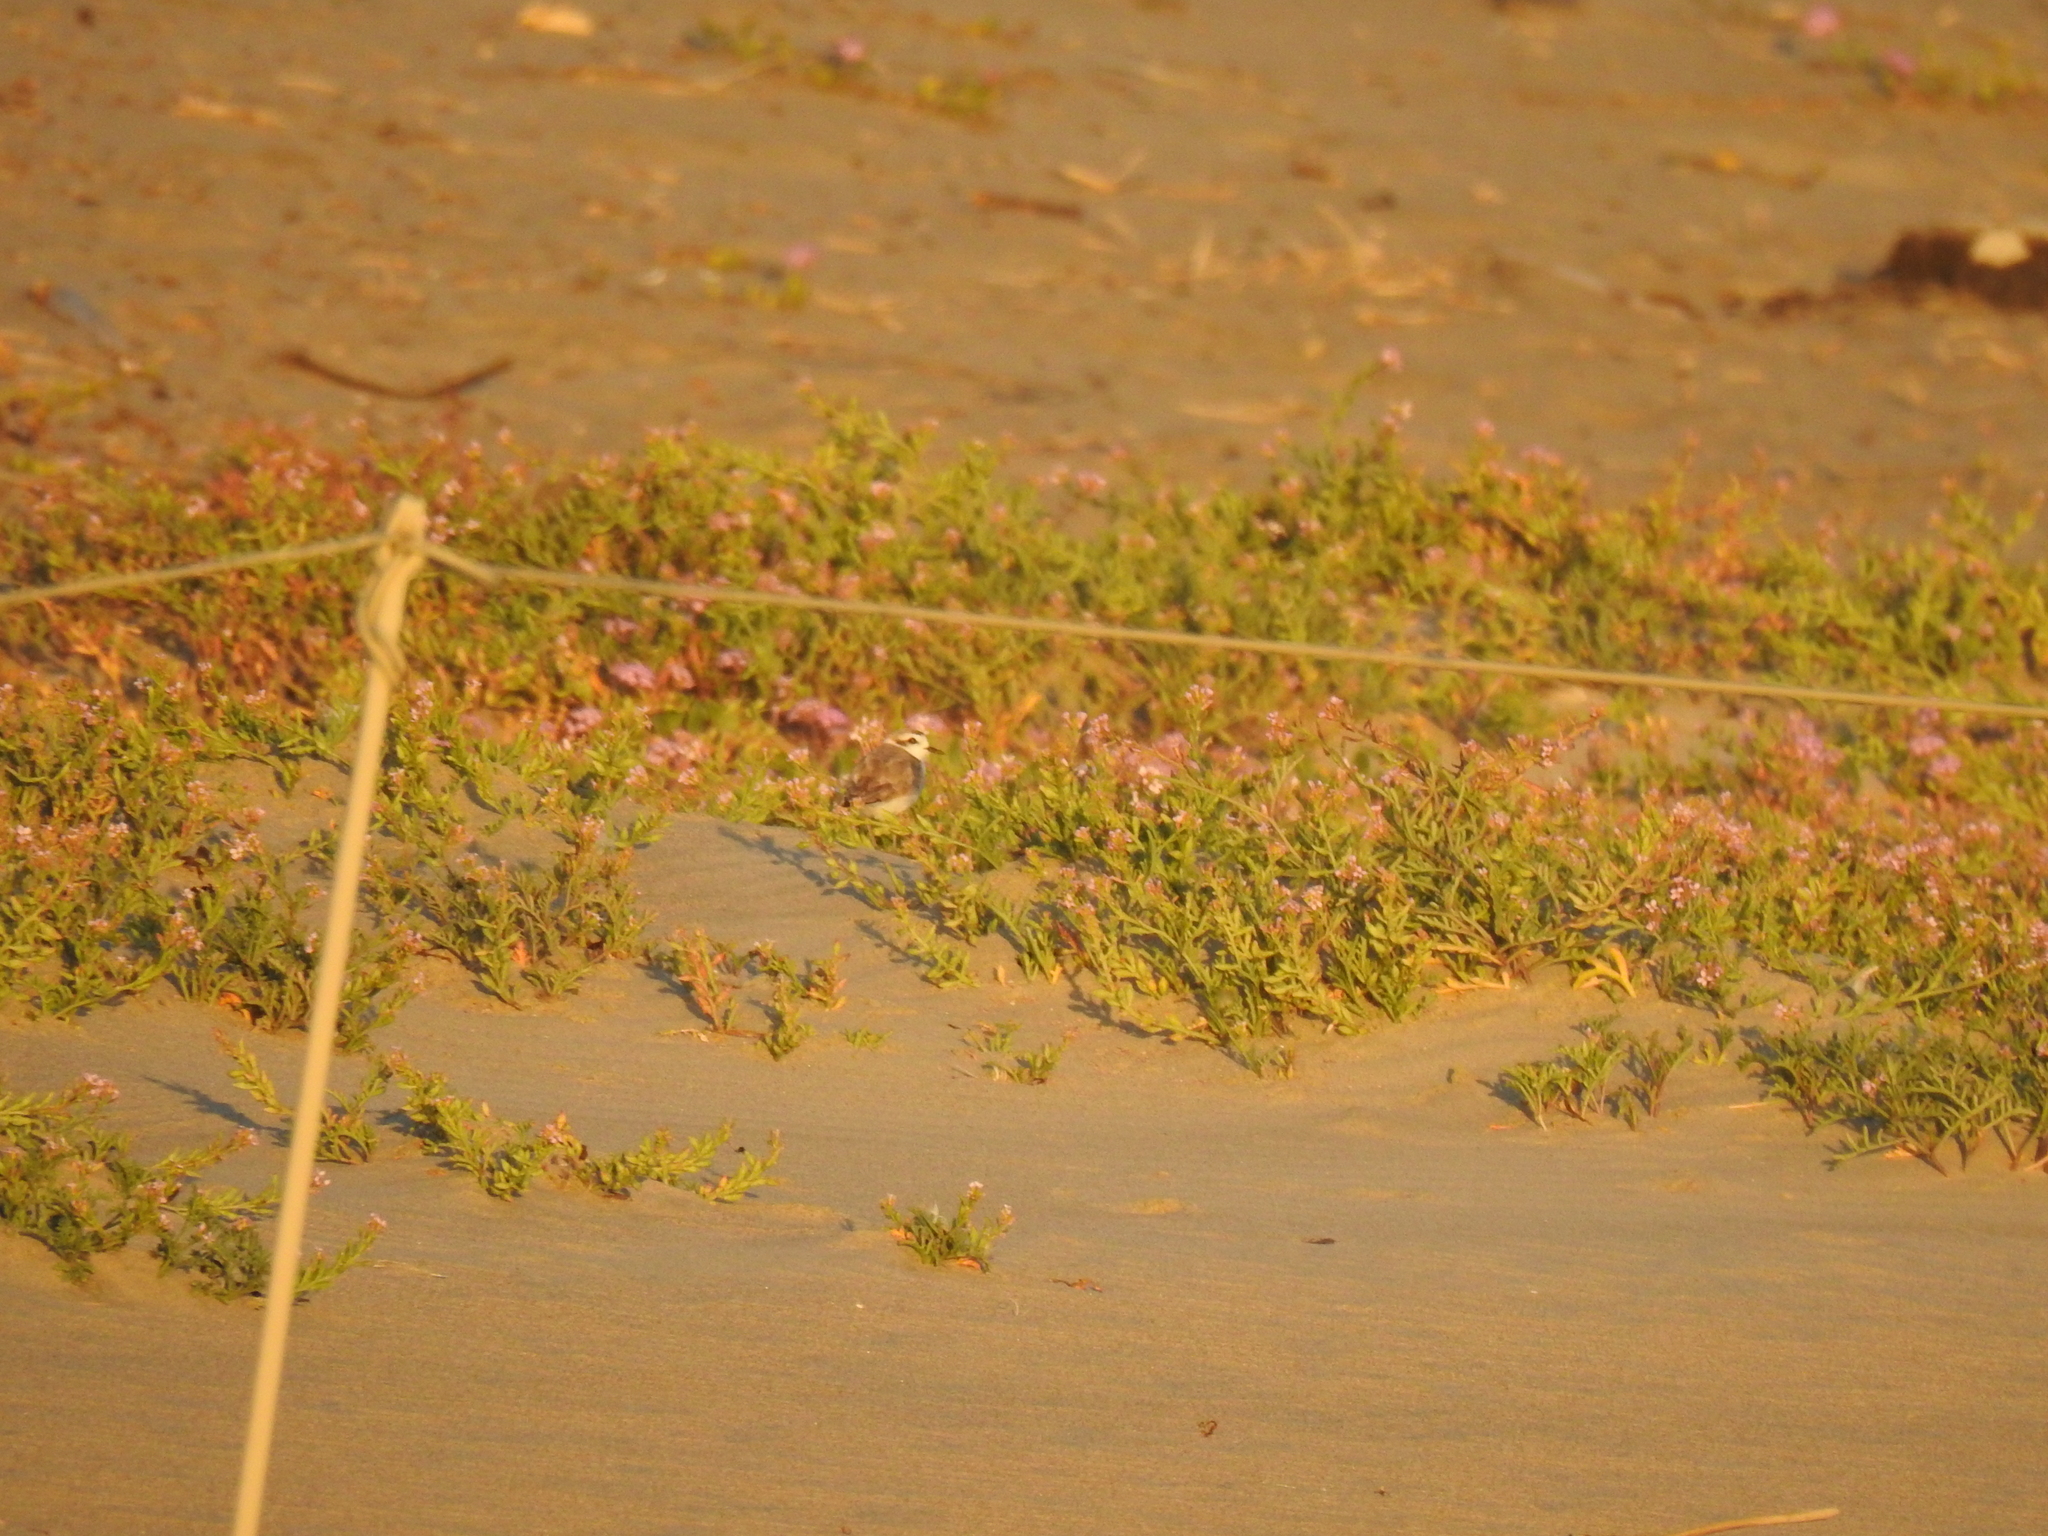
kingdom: Animalia
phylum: Chordata
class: Aves
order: Charadriiformes
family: Charadriidae
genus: Anarhynchus
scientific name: Anarhynchus
